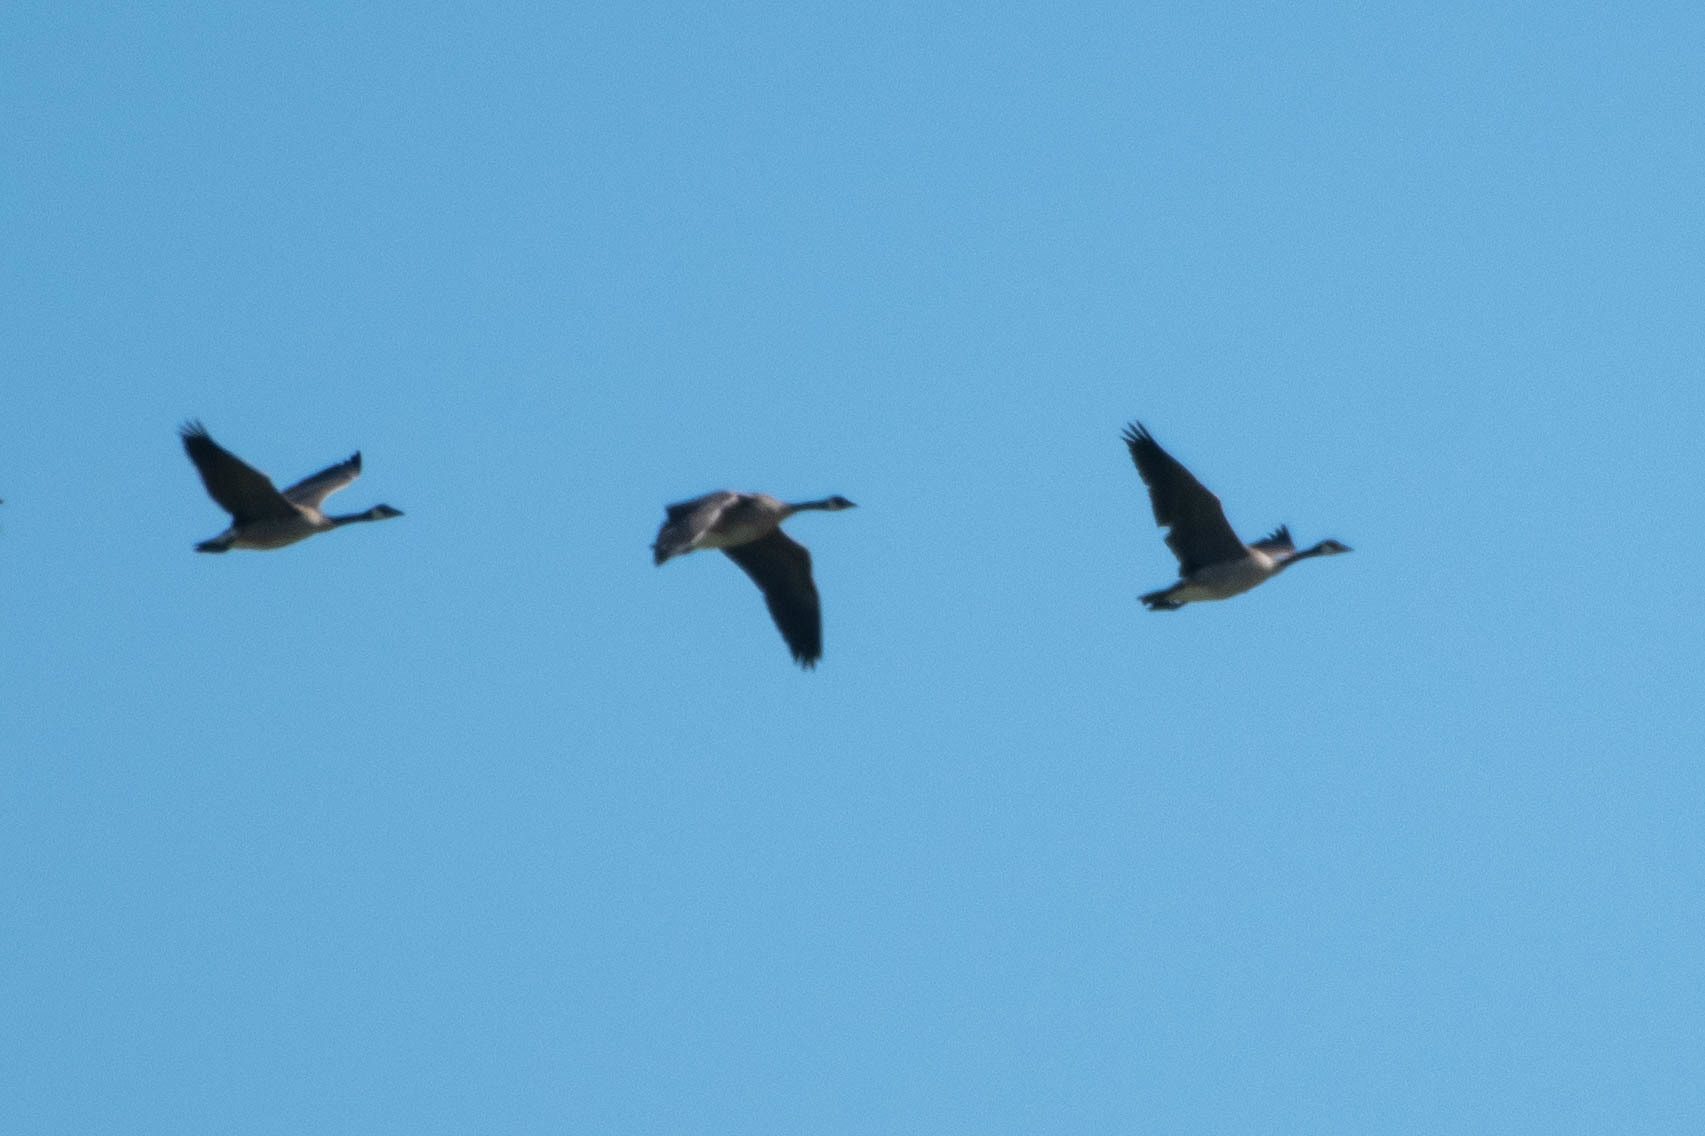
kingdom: Animalia
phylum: Chordata
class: Aves
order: Anseriformes
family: Anatidae
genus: Branta
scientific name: Branta canadensis
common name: Canada goose
